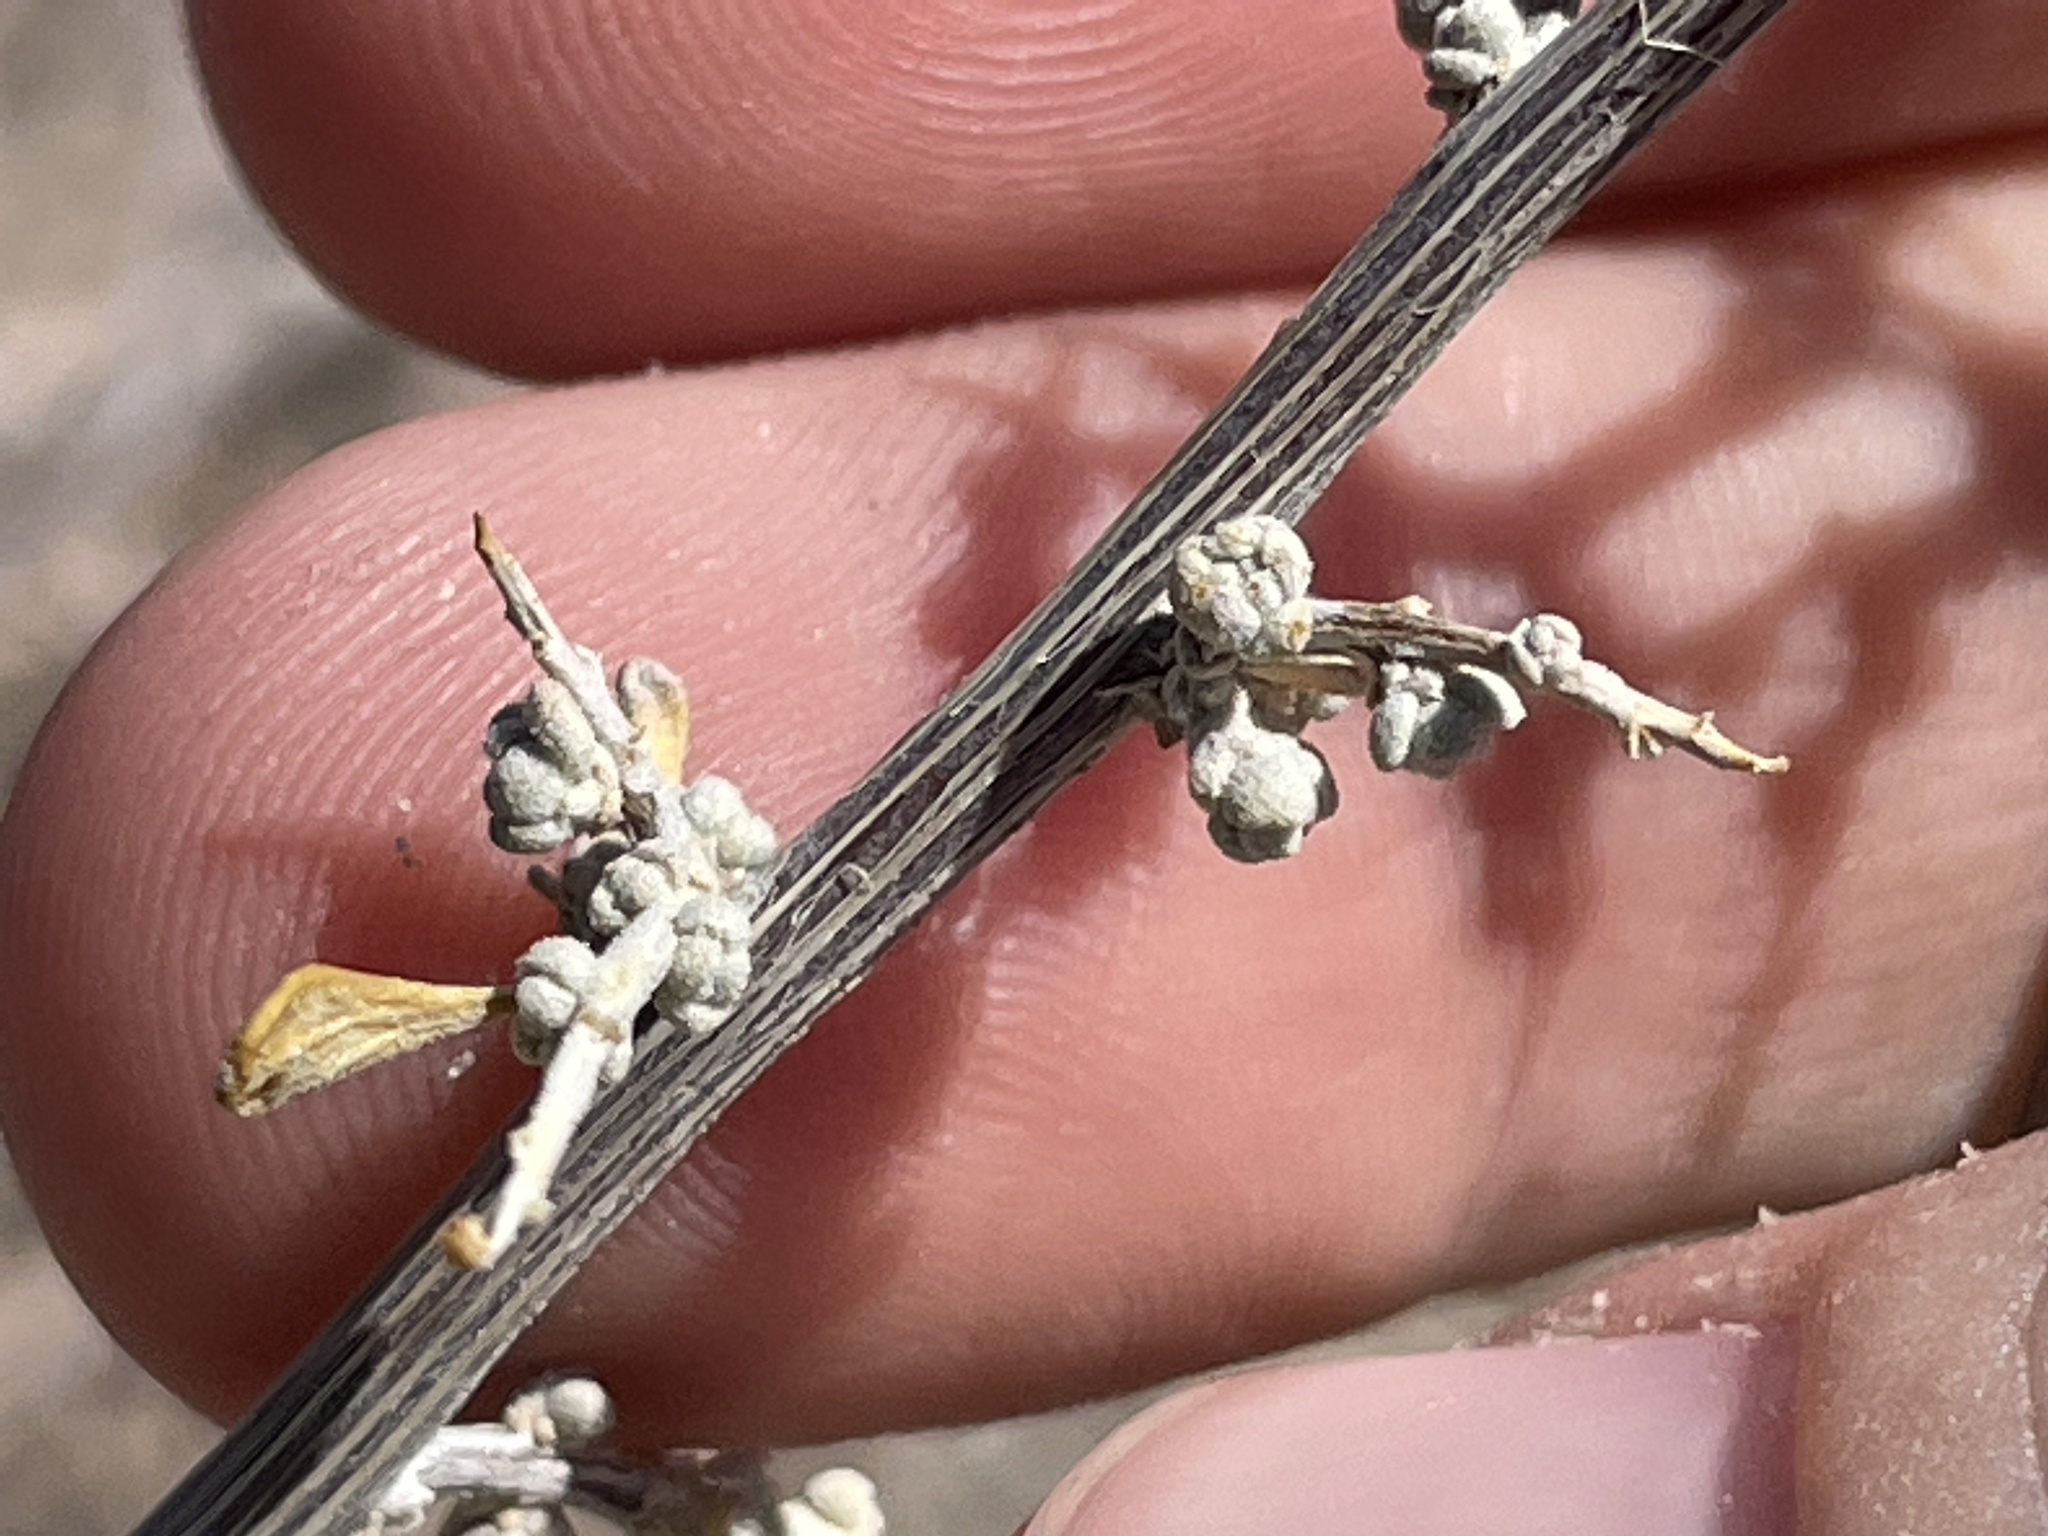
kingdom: Plantae
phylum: Tracheophyta
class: Magnoliopsida
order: Caryophyllales
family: Amaranthaceae
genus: Grayia
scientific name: Grayia spinosa
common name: Spiny hopsage
